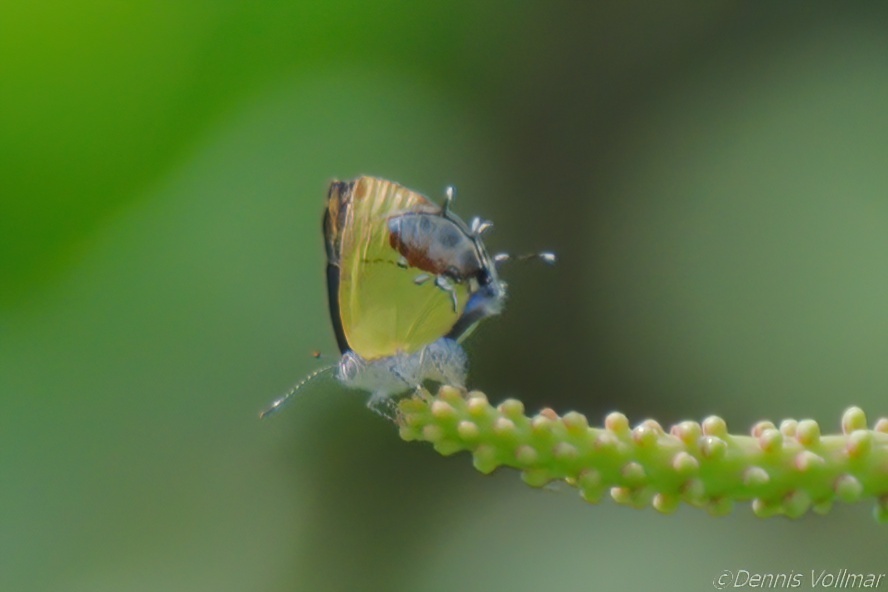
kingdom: Animalia
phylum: Arthropoda
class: Insecta
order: Lepidoptera
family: Lycaenidae
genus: Thecla
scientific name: Thecla maesites
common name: Verde azul hairstreak
